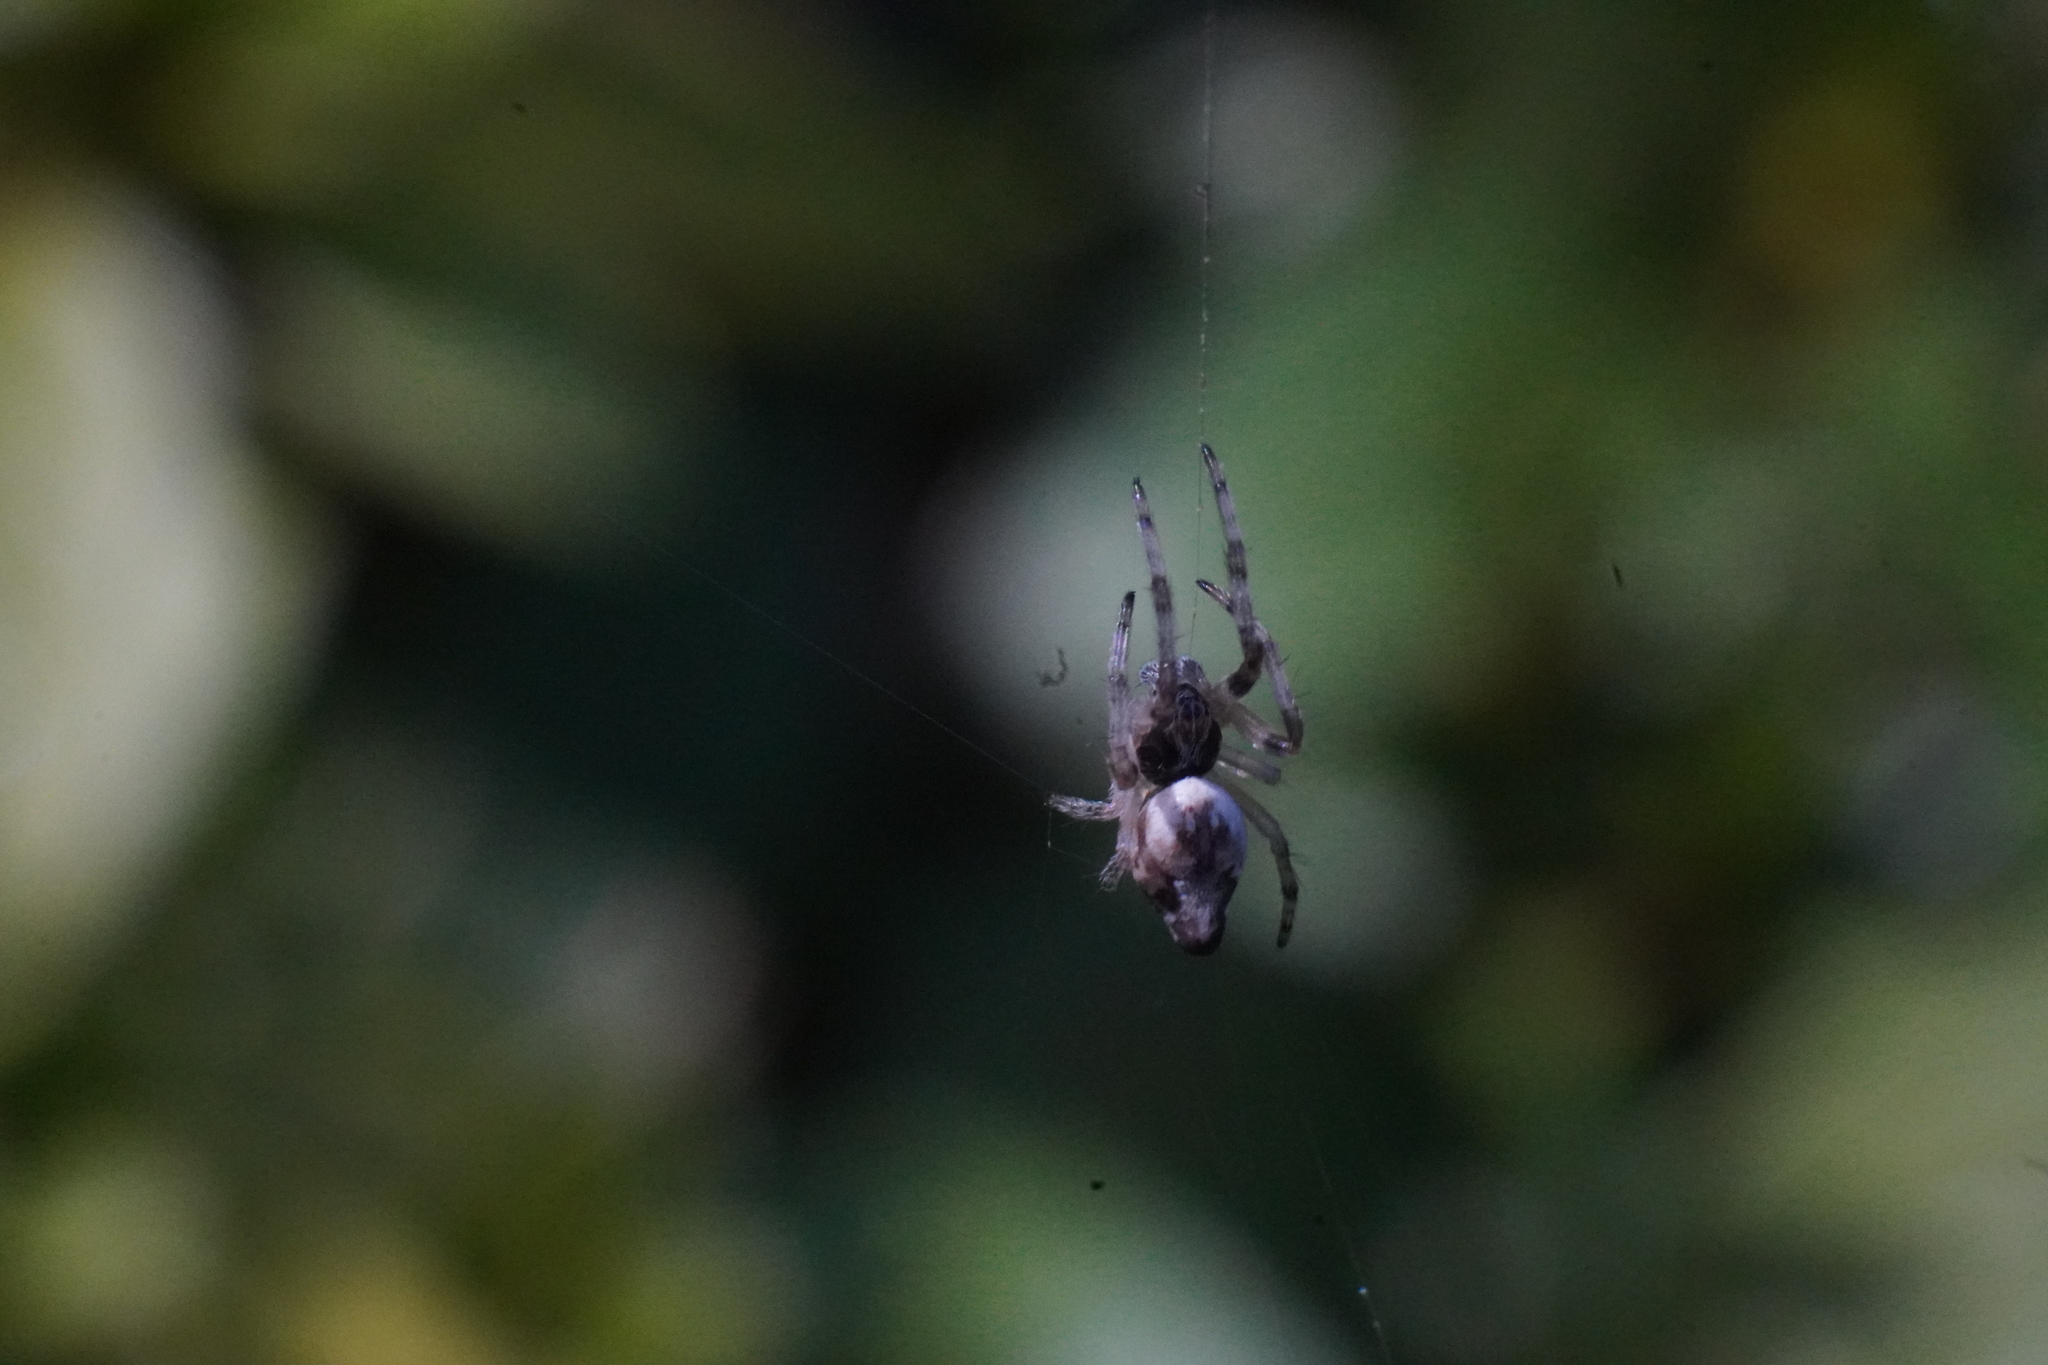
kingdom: Animalia
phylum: Arthropoda
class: Arachnida
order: Araneae
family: Araneidae
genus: Cyclosa
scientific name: Cyclosa conica
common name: Conical trashline orbweaver
